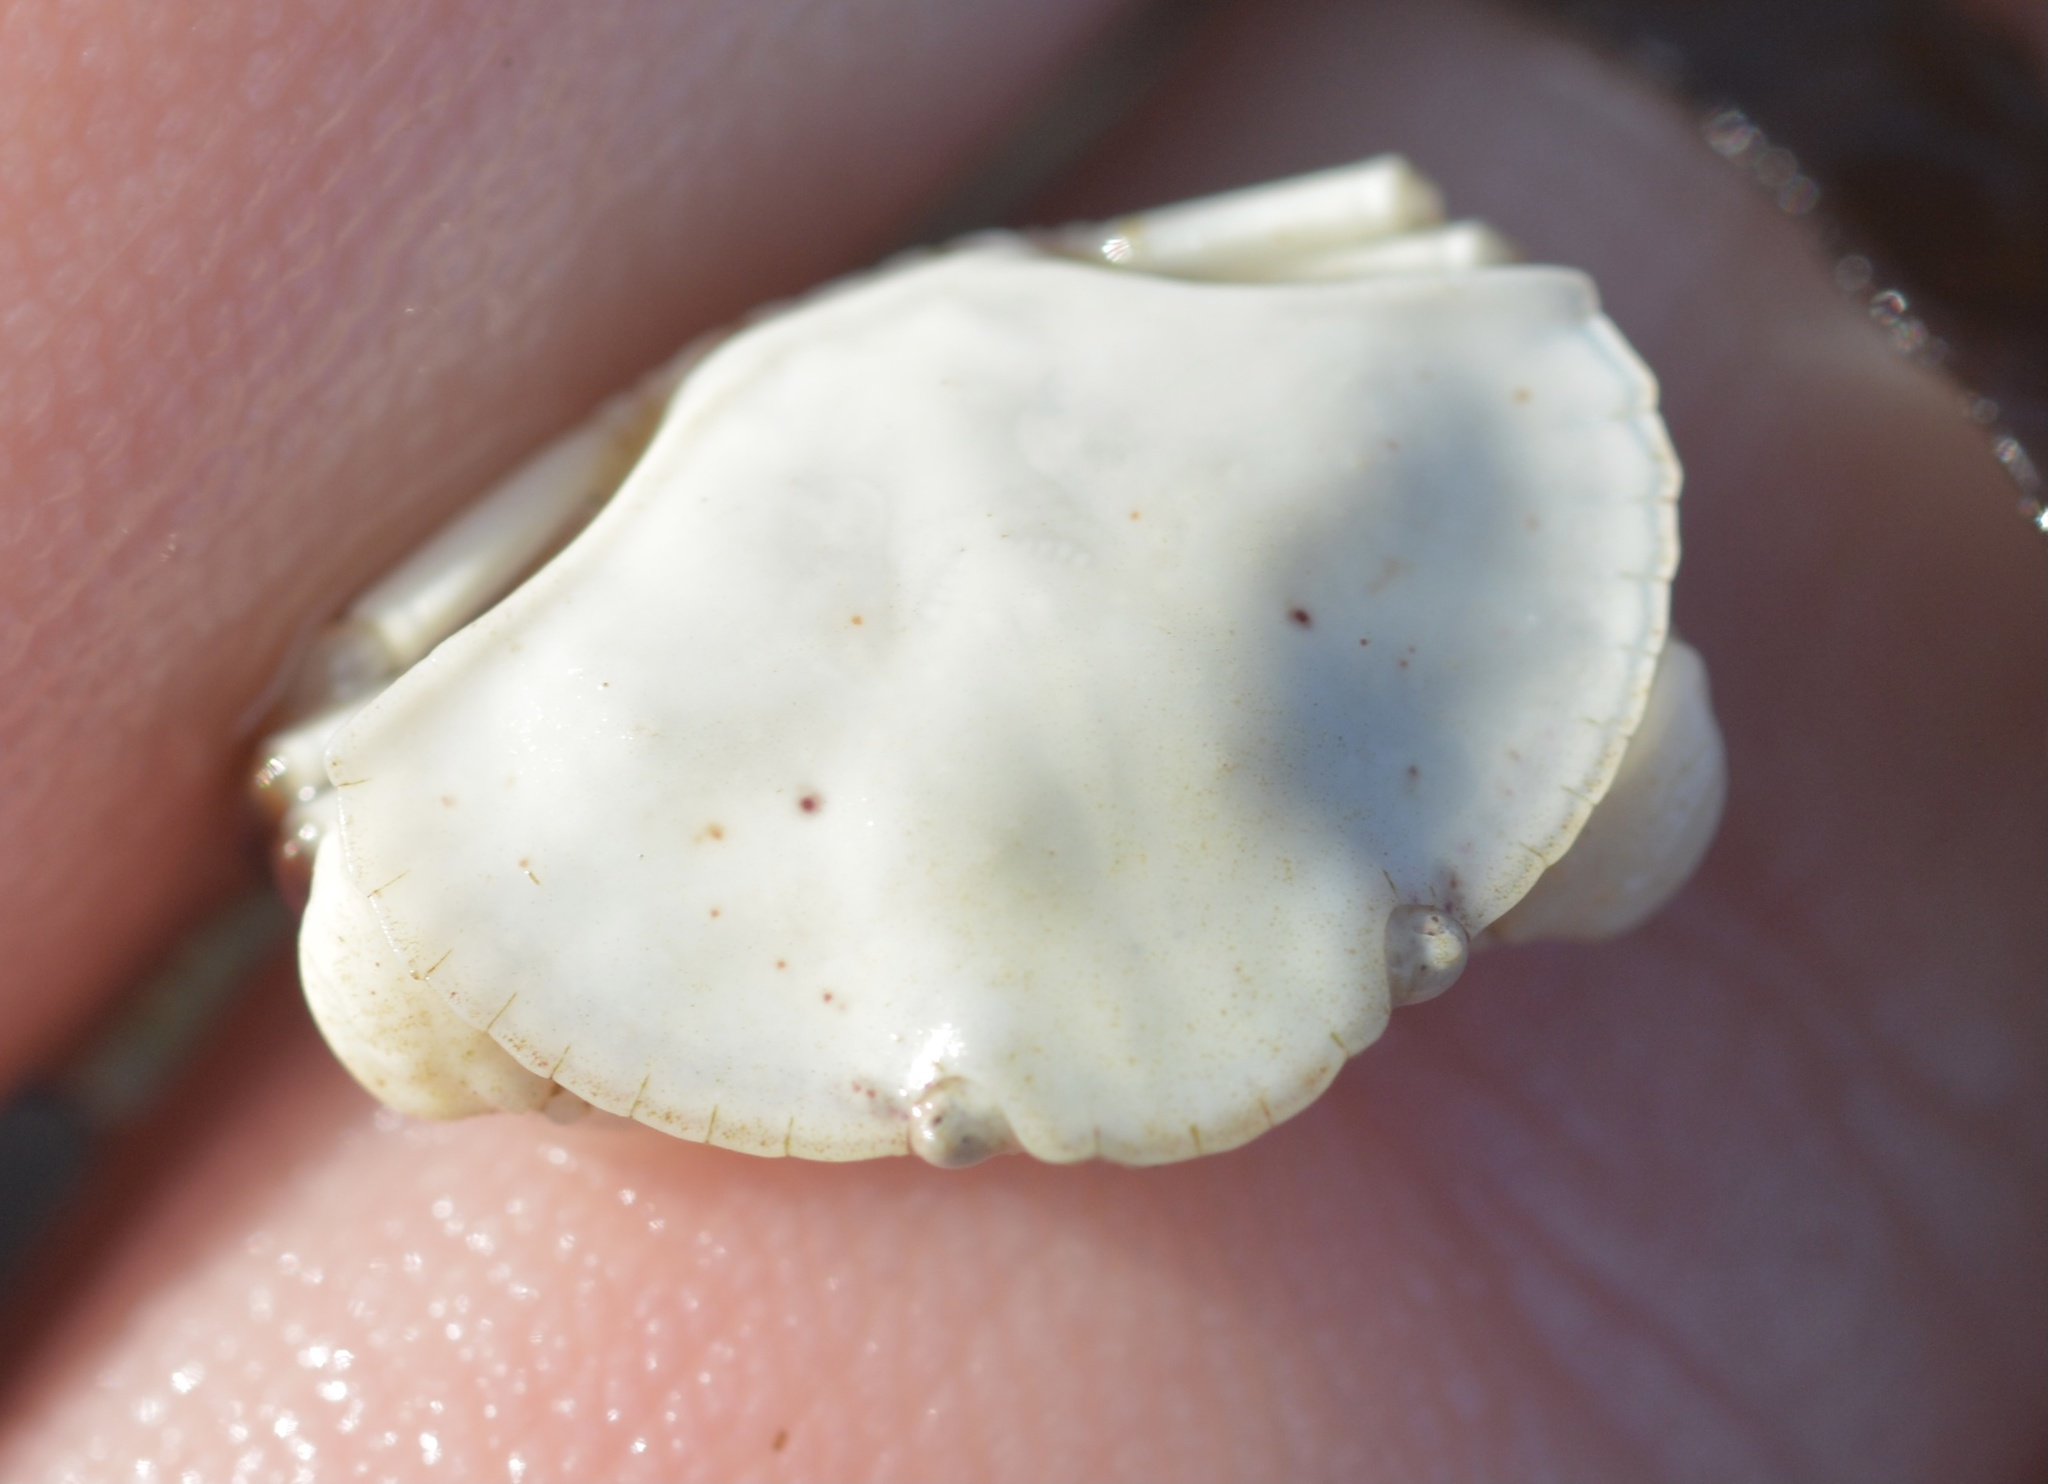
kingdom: Animalia
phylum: Arthropoda
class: Malacostraca
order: Decapoda
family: Cancridae
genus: Cancer
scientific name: Cancer productus
